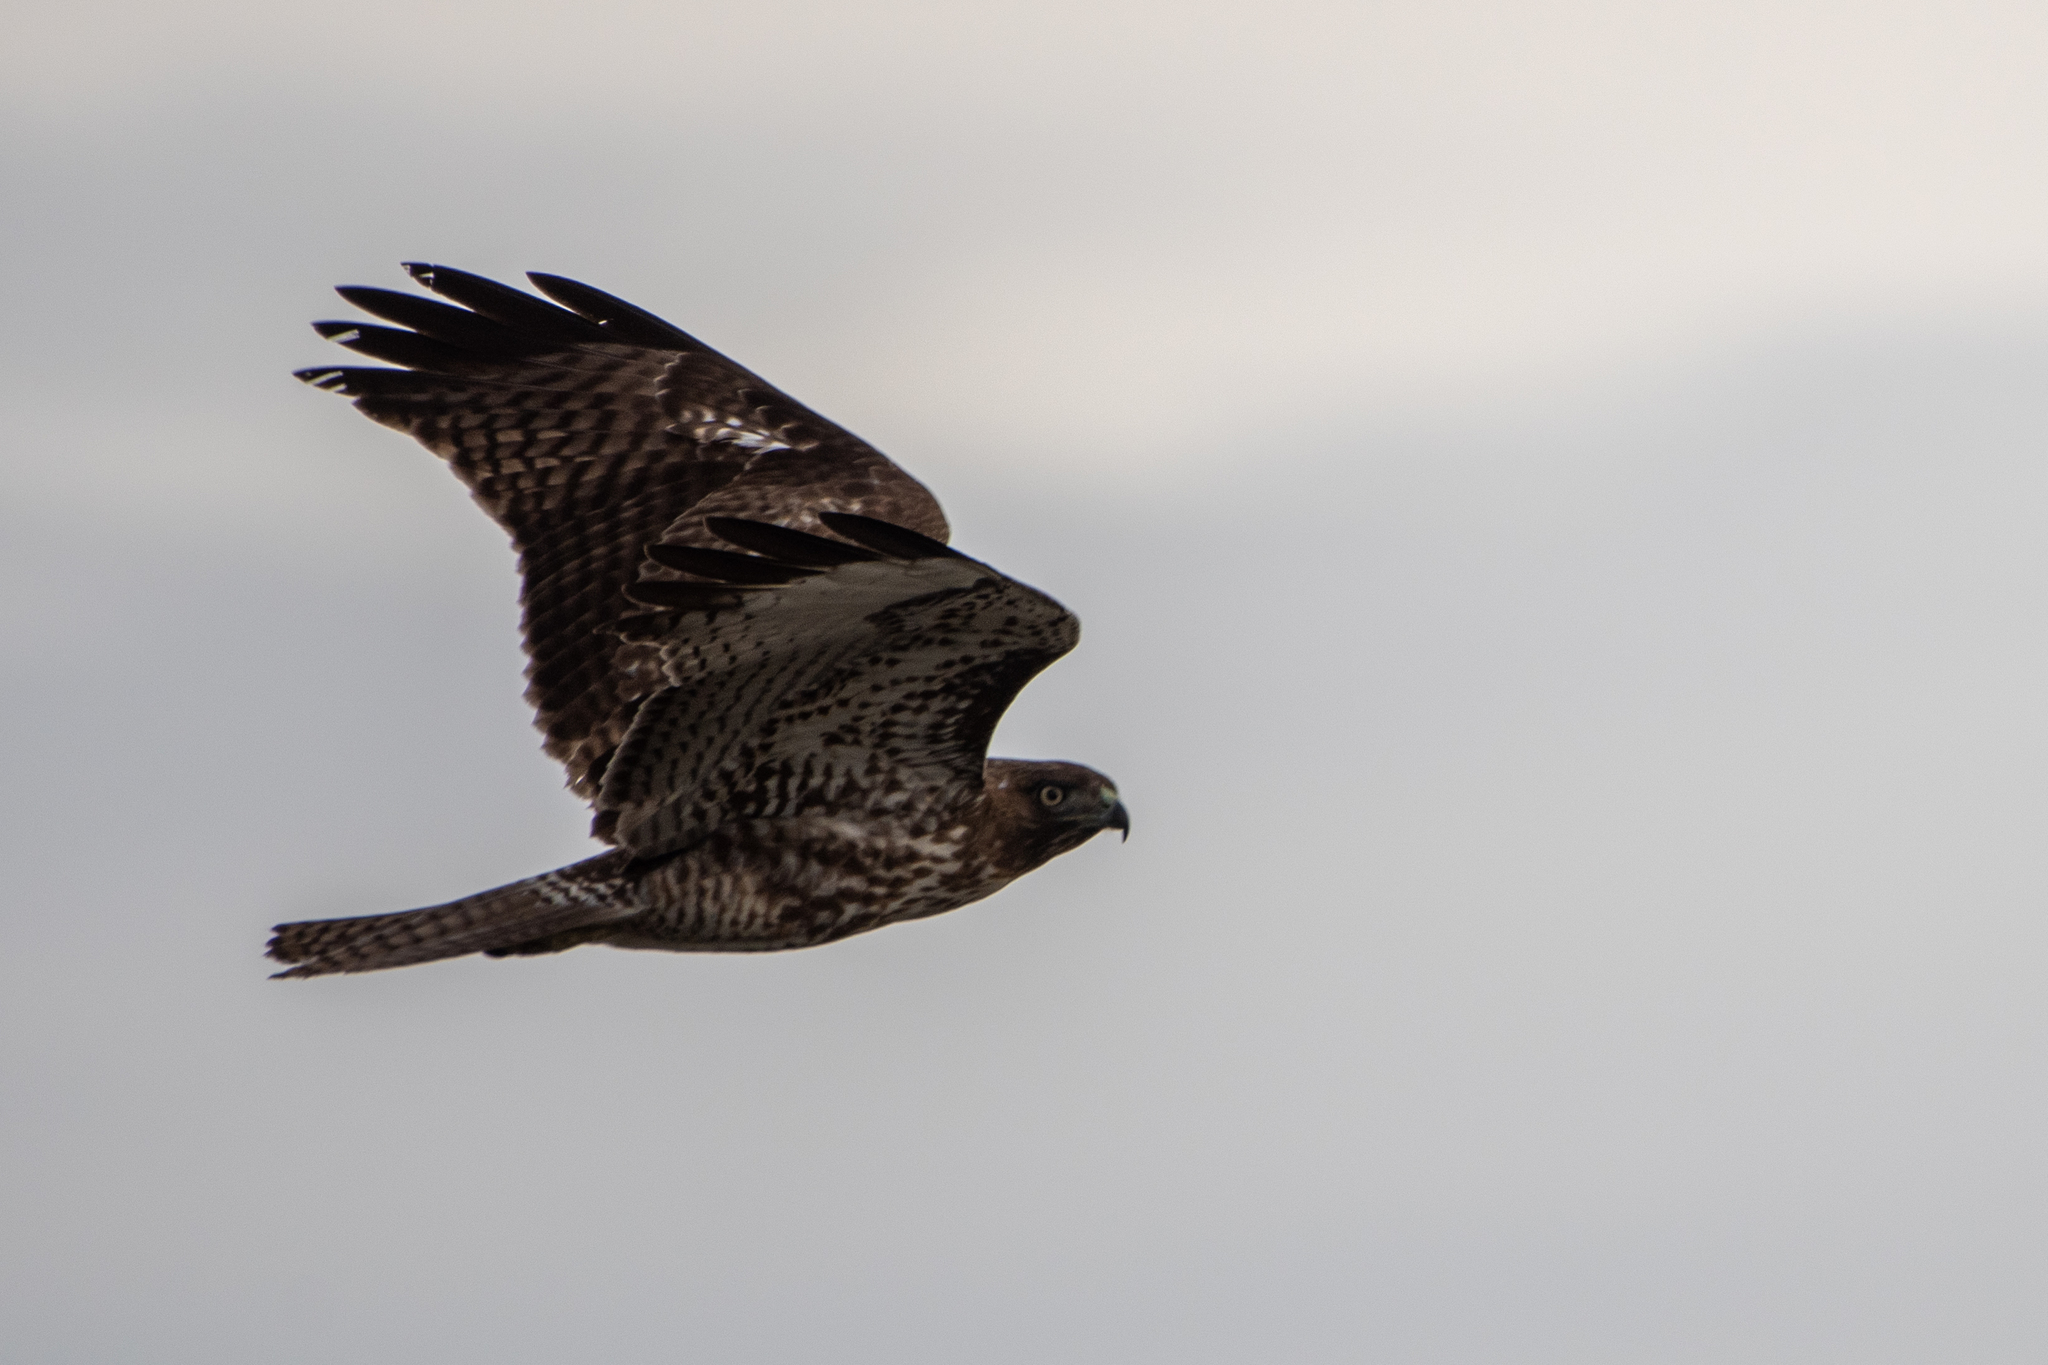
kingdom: Animalia
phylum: Chordata
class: Aves
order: Accipitriformes
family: Accipitridae
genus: Buteo
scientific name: Buteo jamaicensis
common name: Red-tailed hawk
